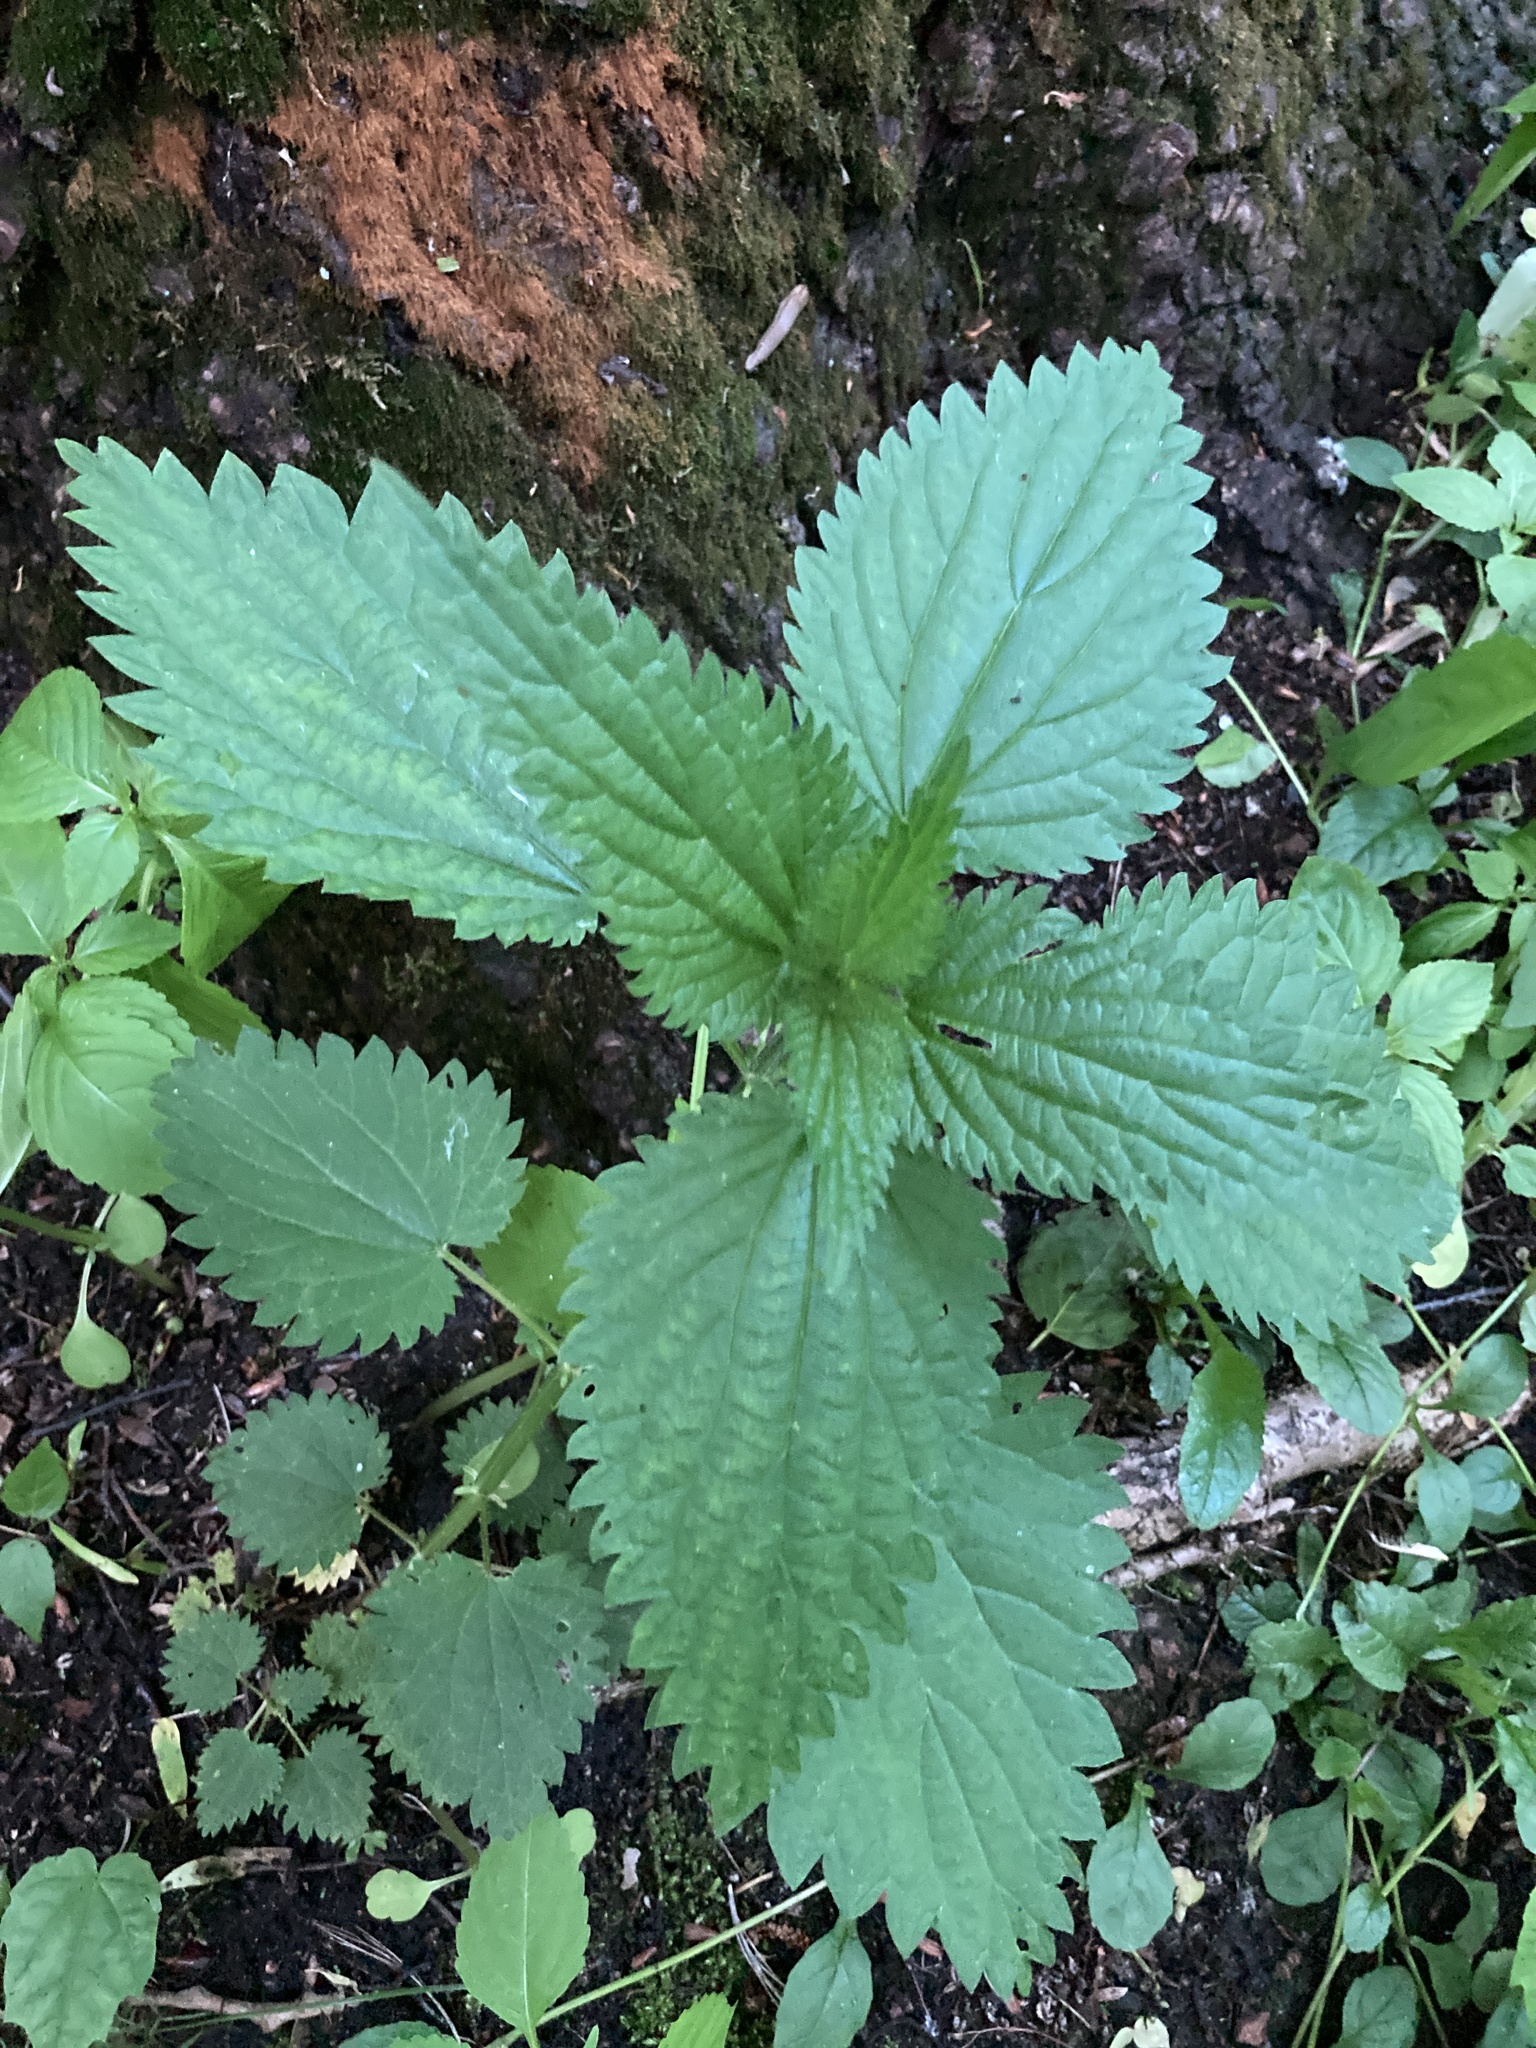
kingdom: Plantae
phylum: Tracheophyta
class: Magnoliopsida
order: Rosales
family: Urticaceae
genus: Urtica
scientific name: Urtica dioica
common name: Common nettle
